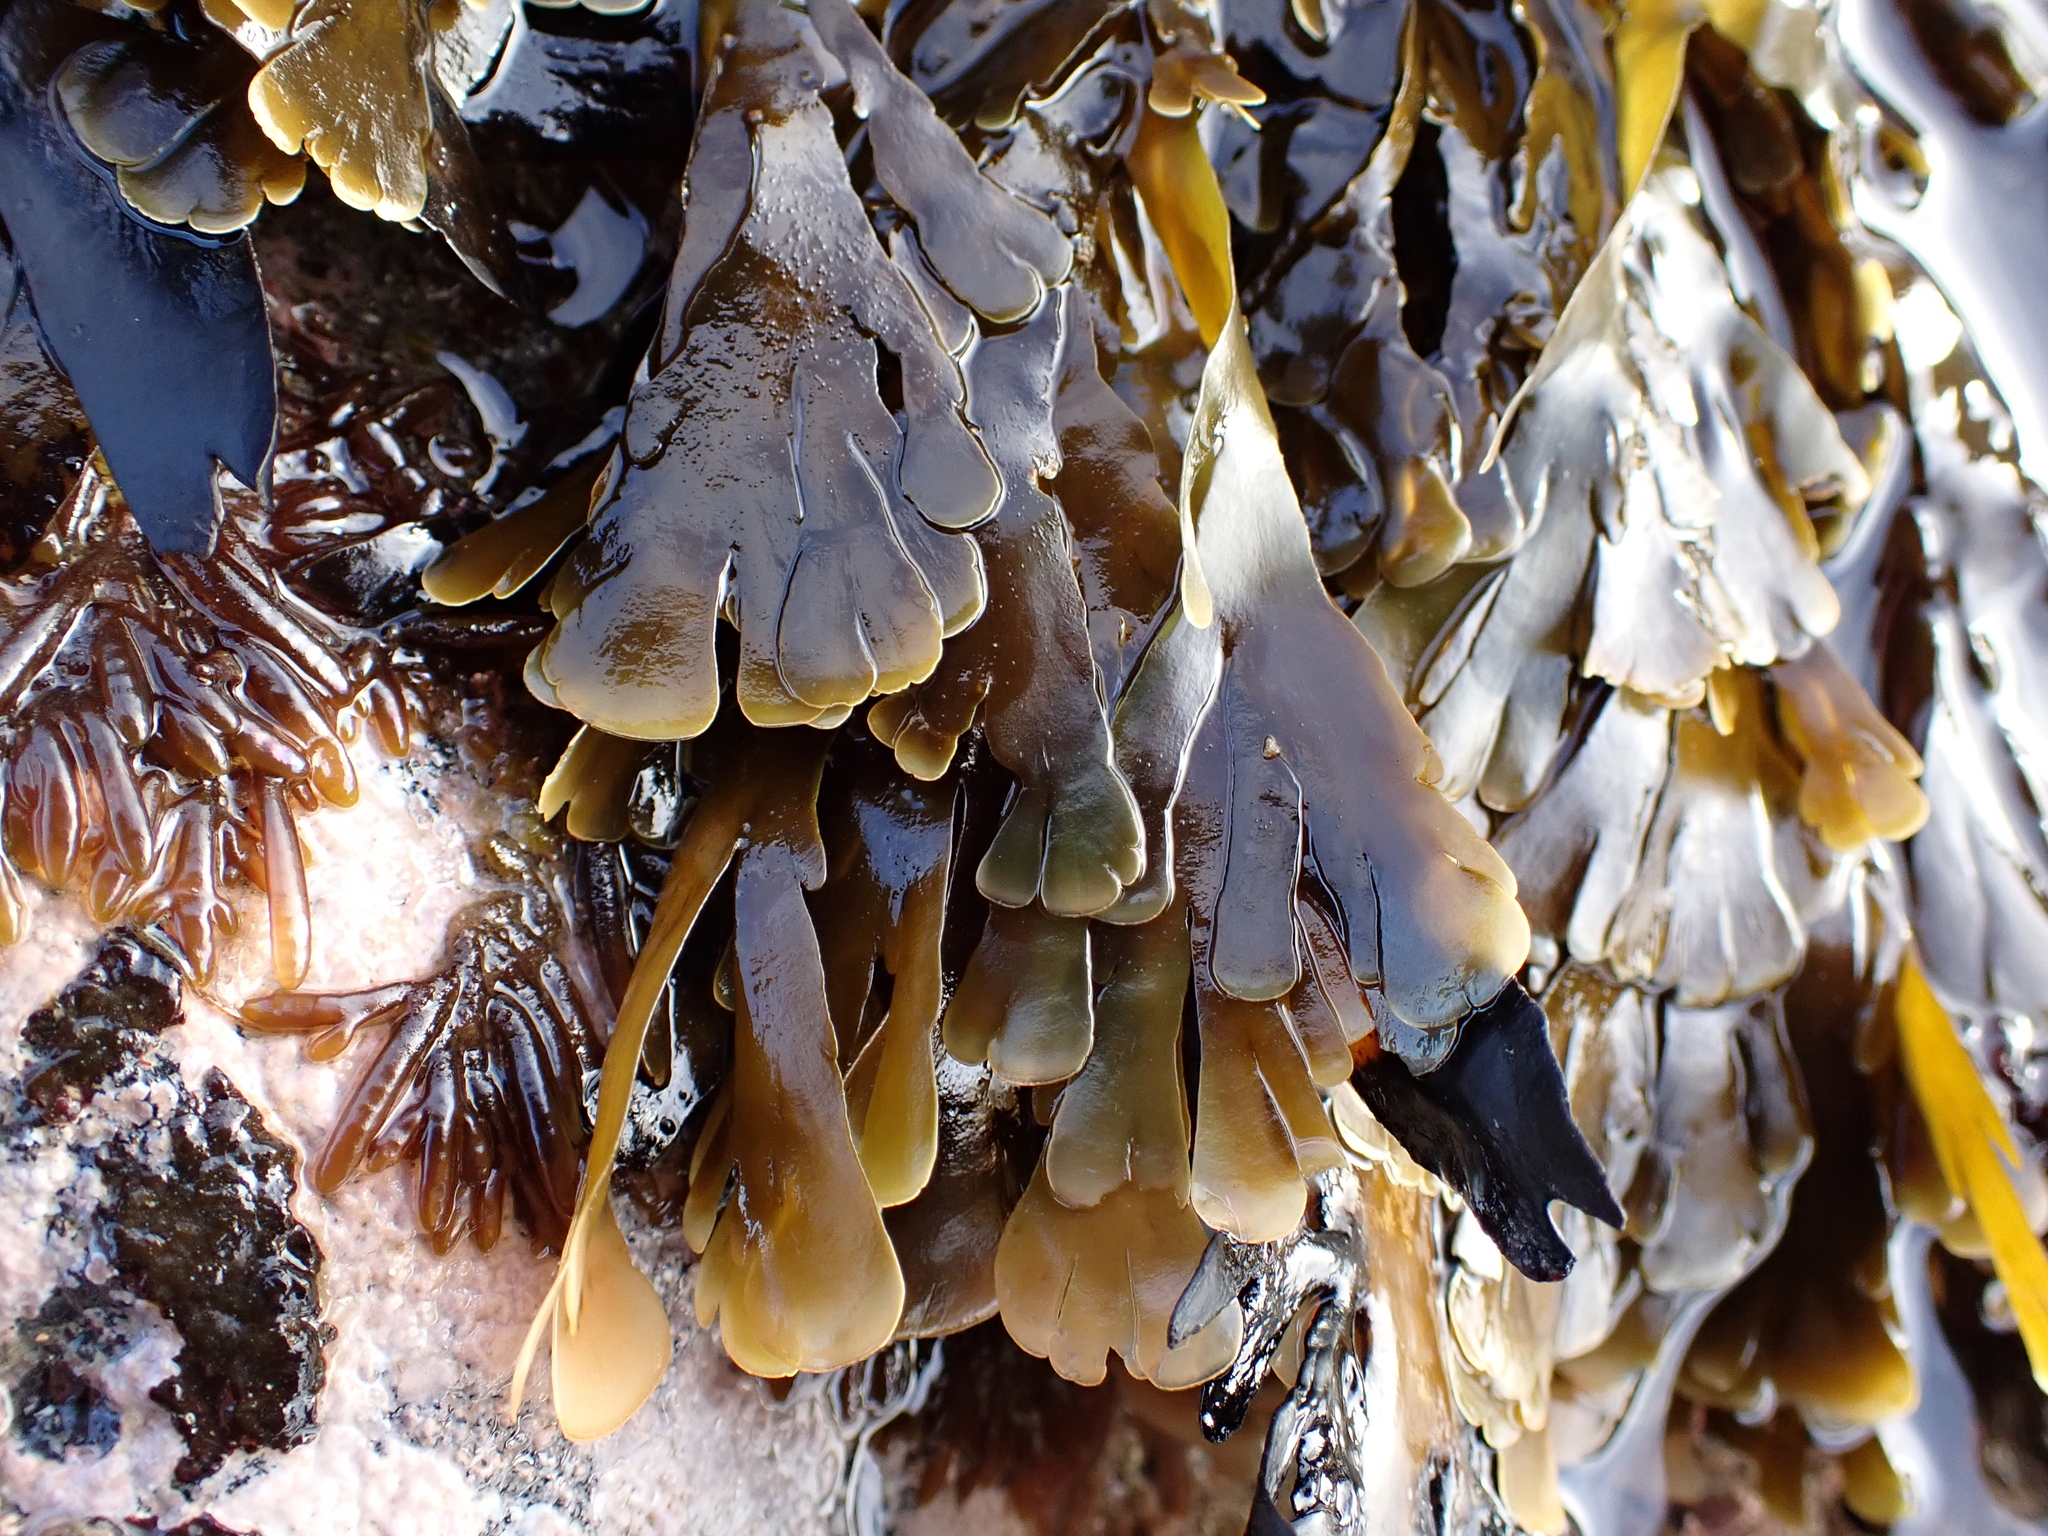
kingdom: Chromista
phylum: Ochrophyta
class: Phaeophyceae
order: Dictyotales
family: Dictyotaceae
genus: Zonaria
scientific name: Zonaria turneriana
